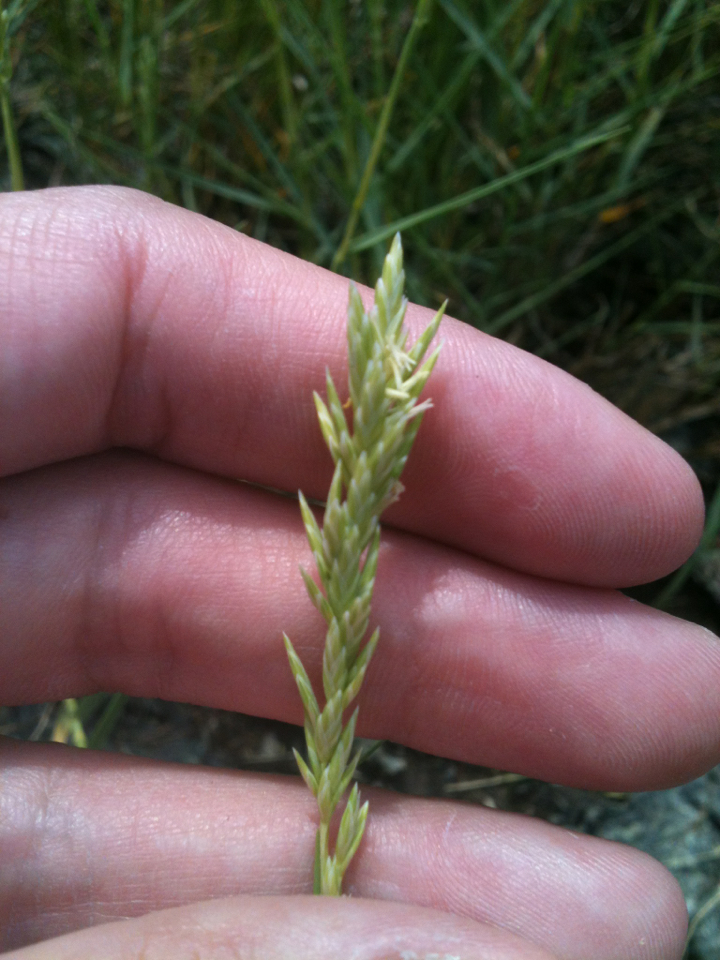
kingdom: Plantae
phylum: Tracheophyta
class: Liliopsida
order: Poales
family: Poaceae
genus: Distichlis
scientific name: Distichlis spicata
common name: Saltgrass
